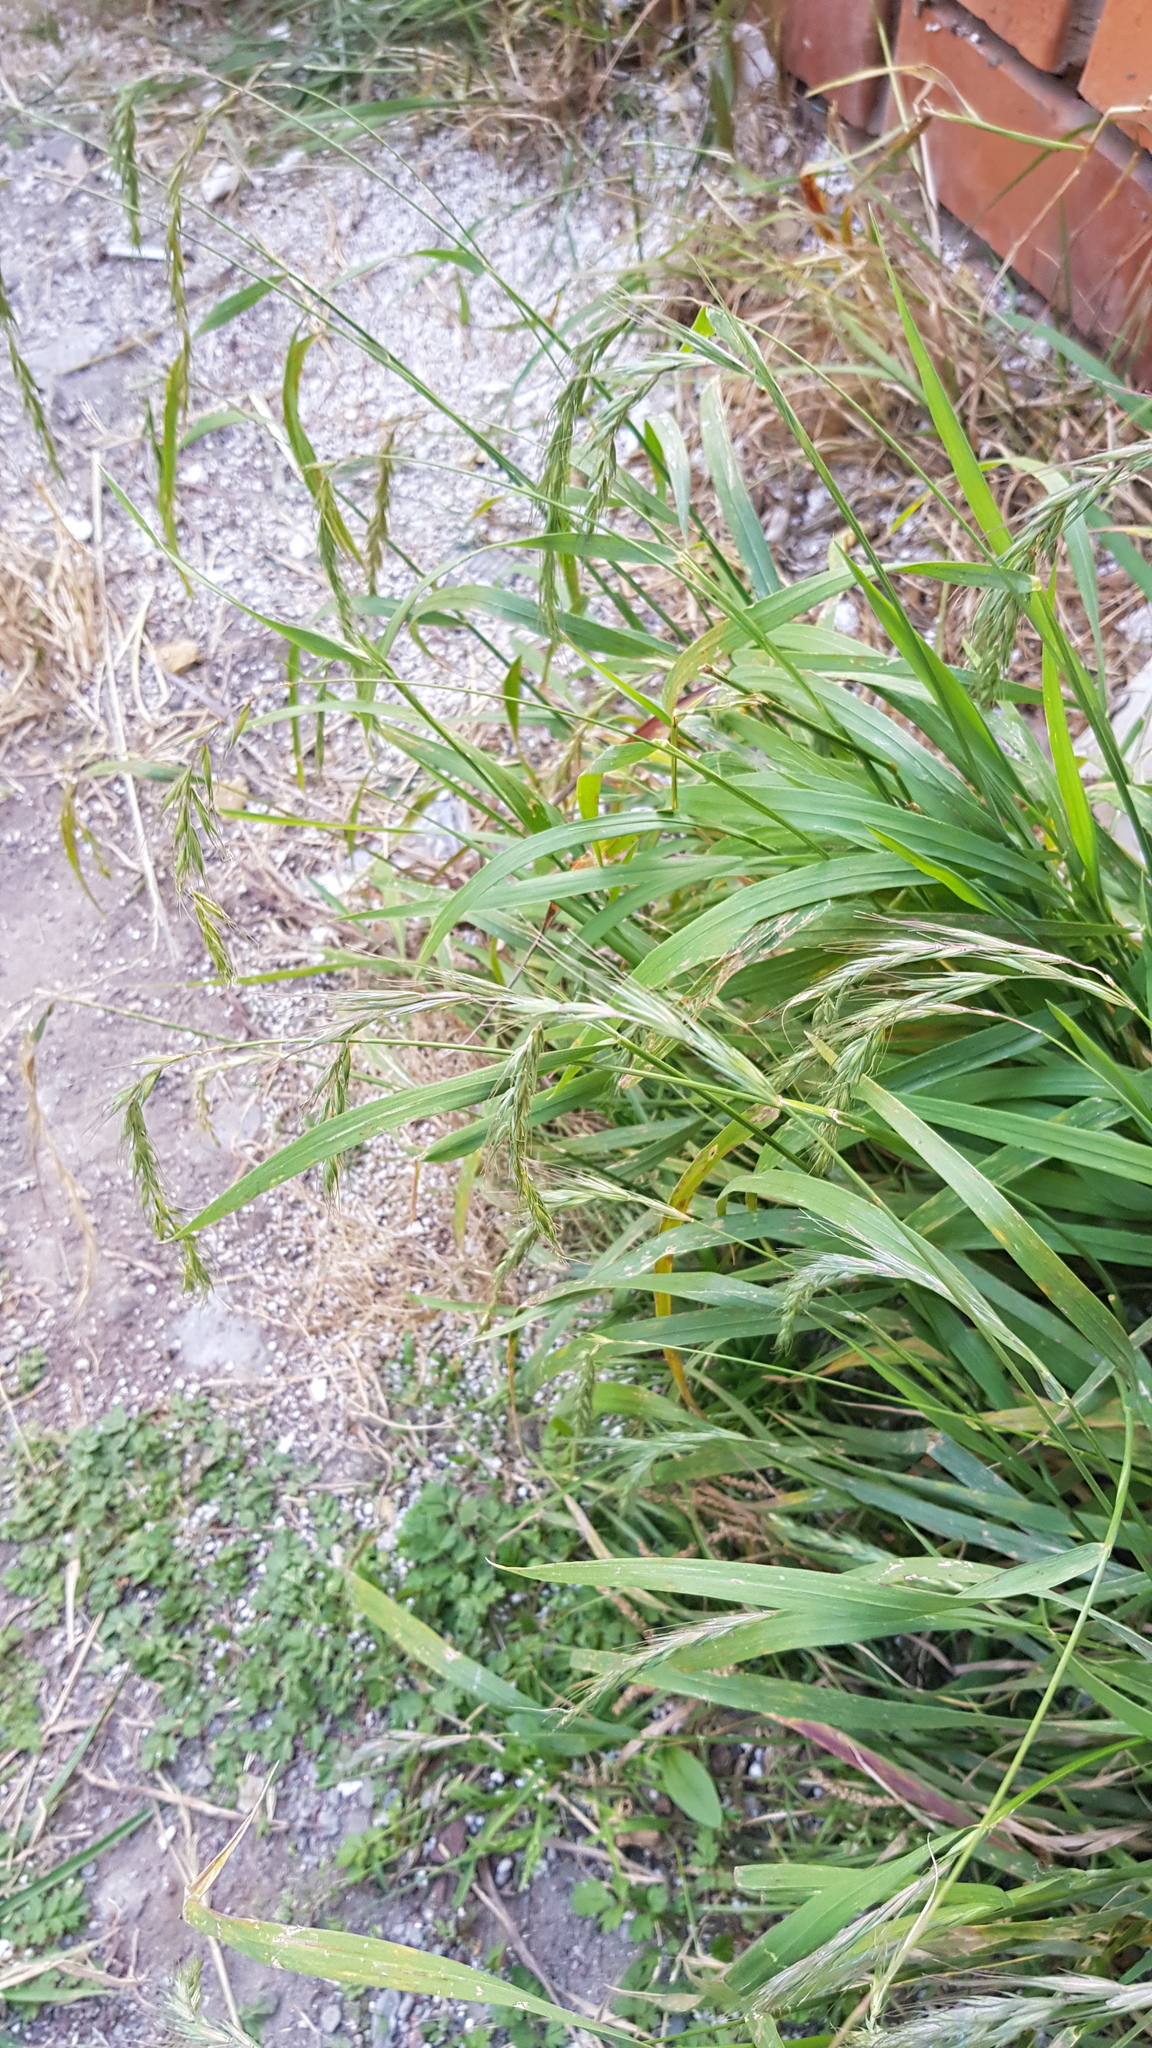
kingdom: Plantae
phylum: Tracheophyta
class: Liliopsida
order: Poales
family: Poaceae
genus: Elymus
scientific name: Elymus sibiricus
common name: Siberian wildrye
